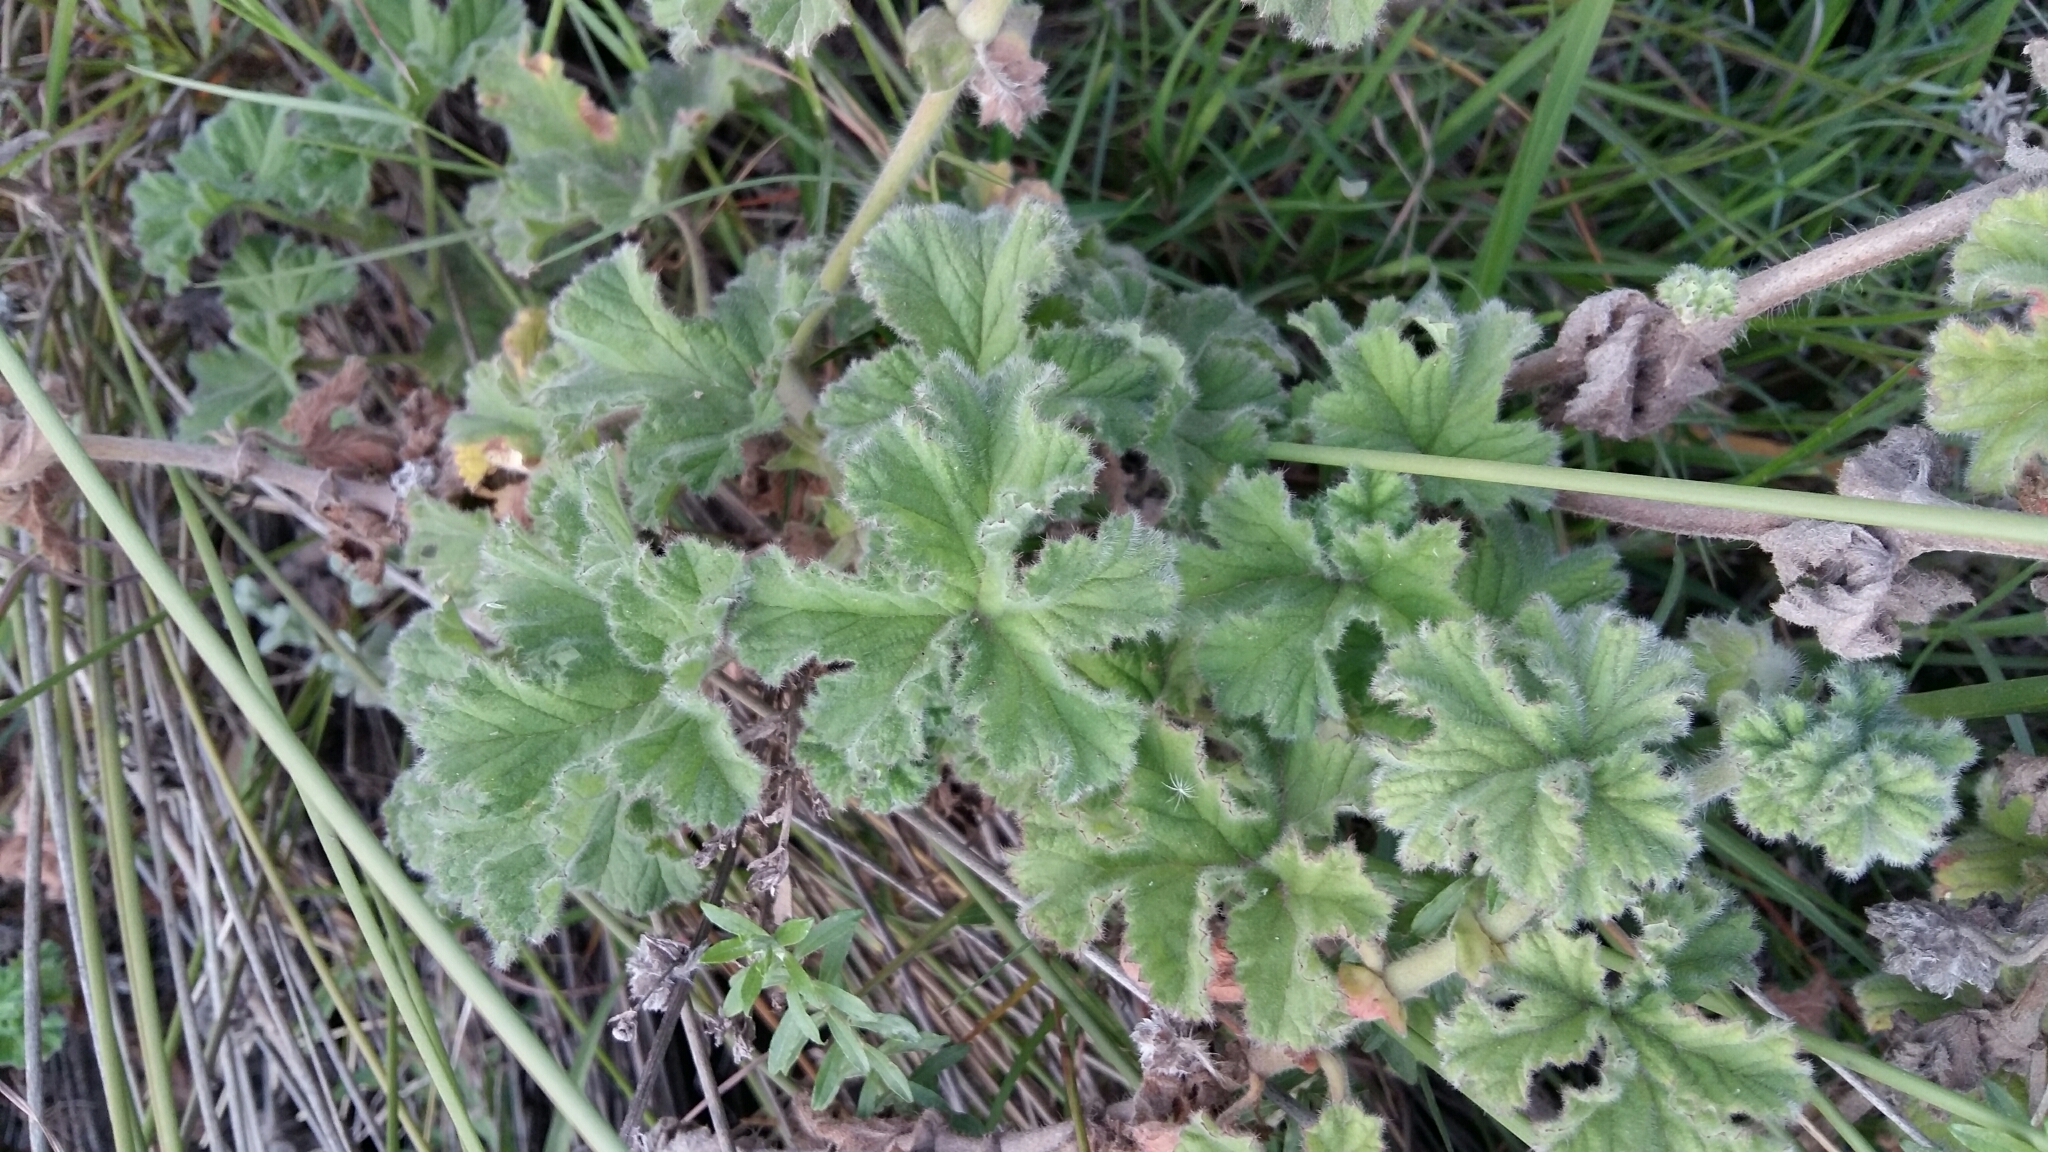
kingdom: Plantae
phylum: Tracheophyta
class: Magnoliopsida
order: Geraniales
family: Geraniaceae
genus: Pelargonium
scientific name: Pelargonium capitatum
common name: Rose scented geranium
